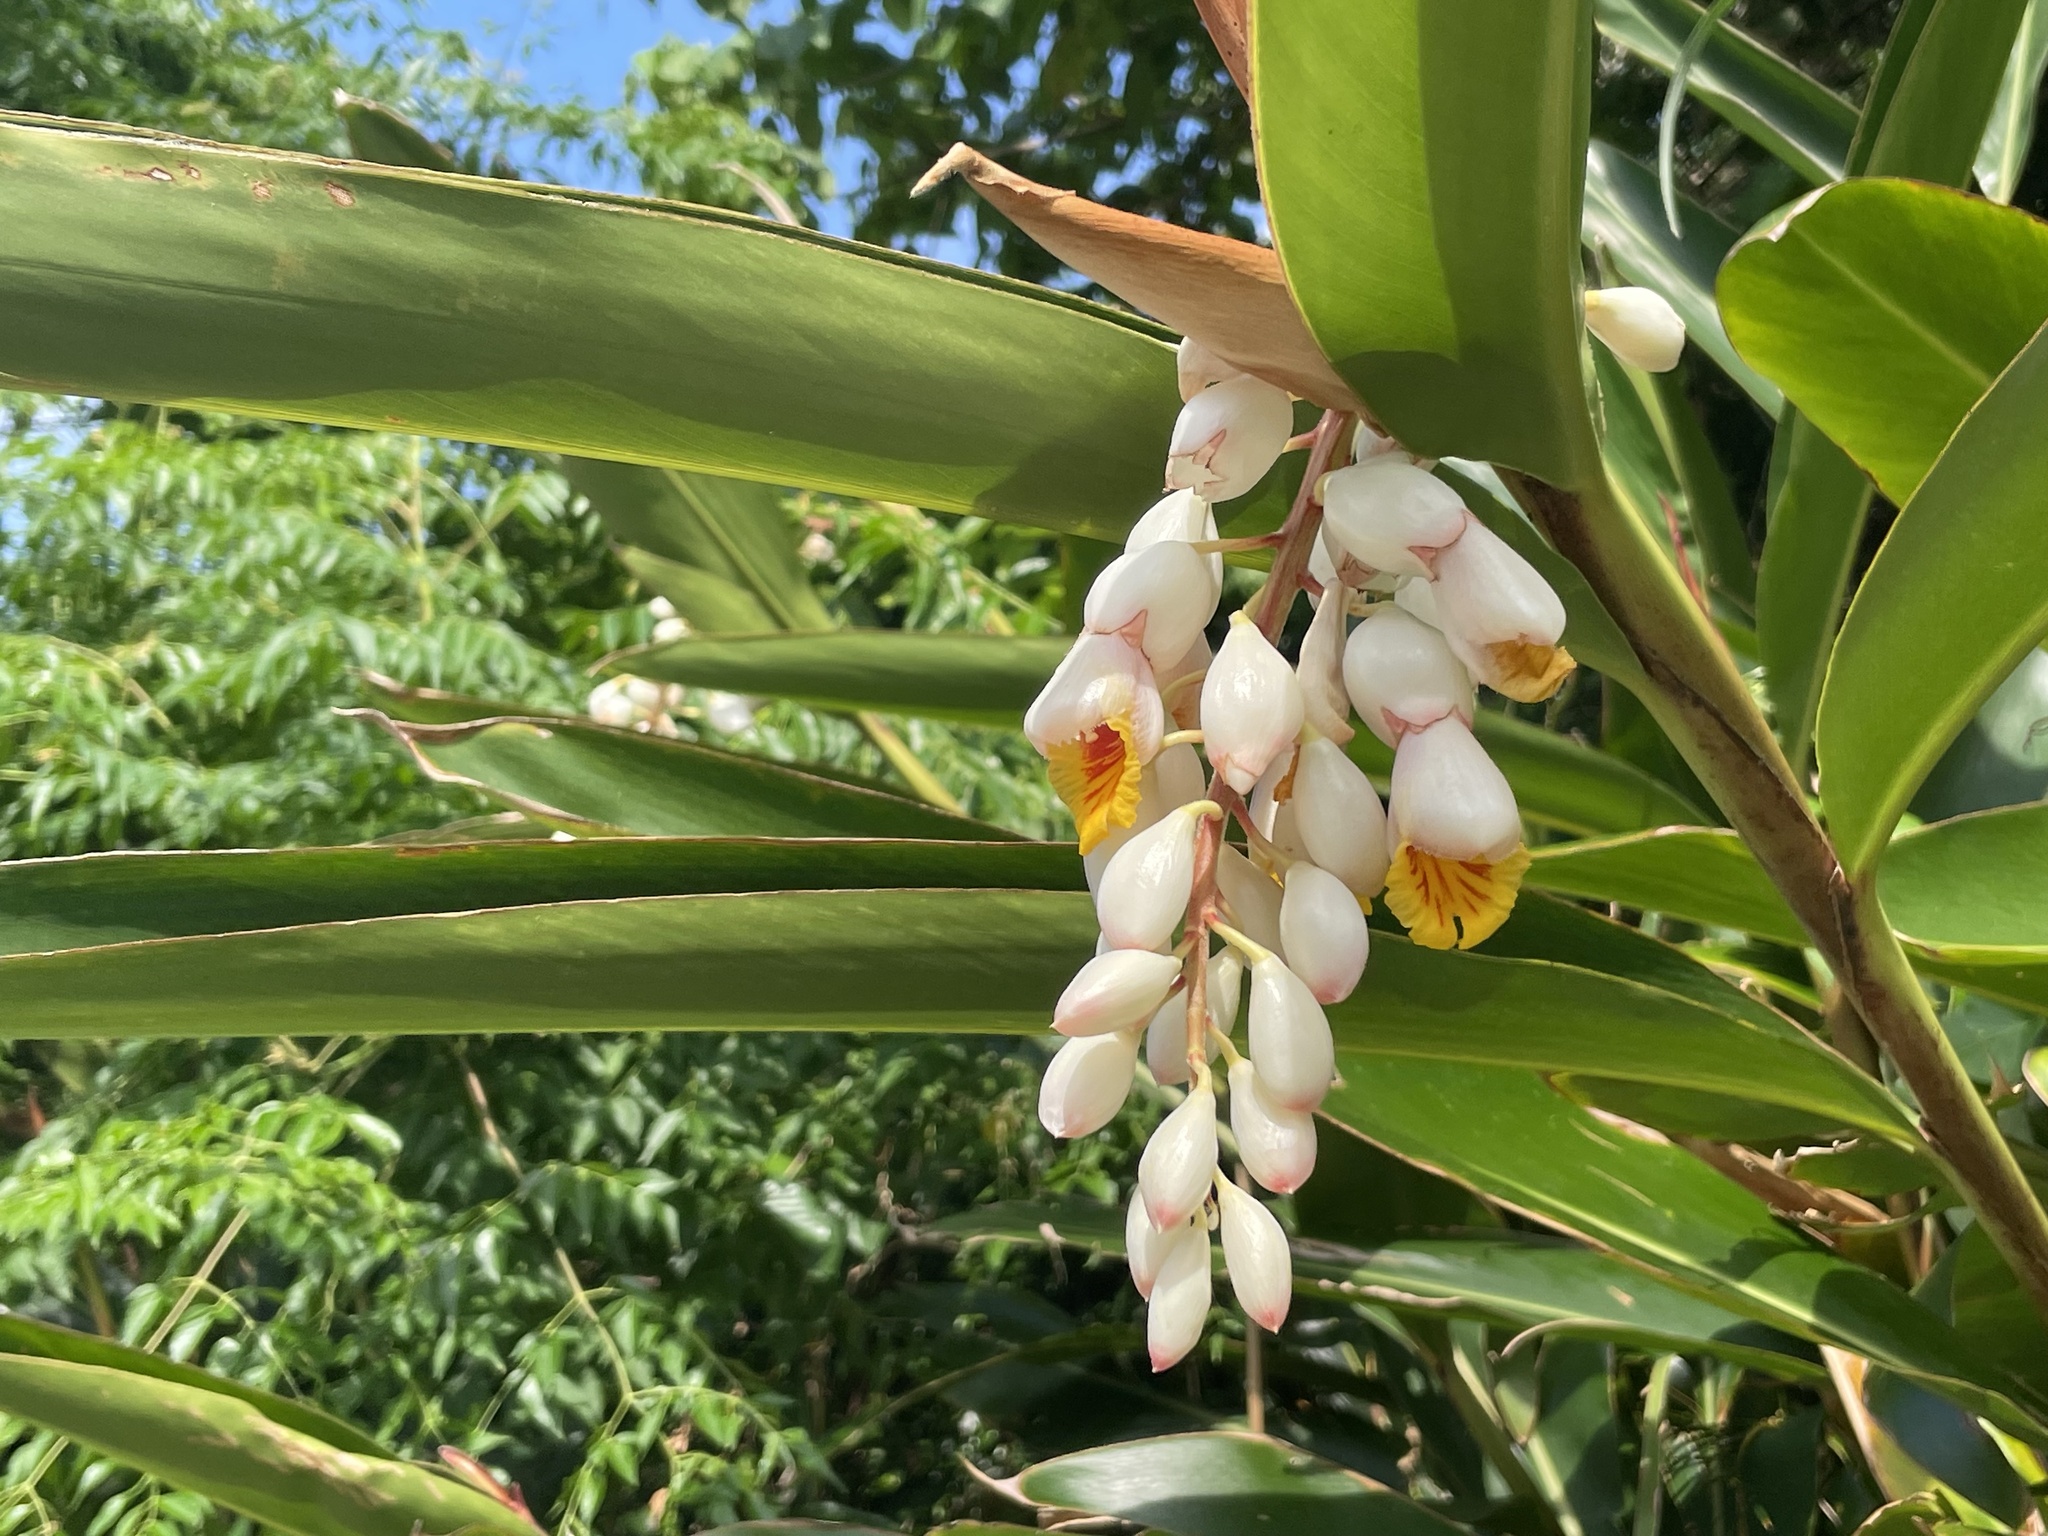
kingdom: Plantae
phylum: Tracheophyta
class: Liliopsida
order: Zingiberales
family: Zingiberaceae
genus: Alpinia
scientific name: Alpinia zerumbet
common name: Shellplant
